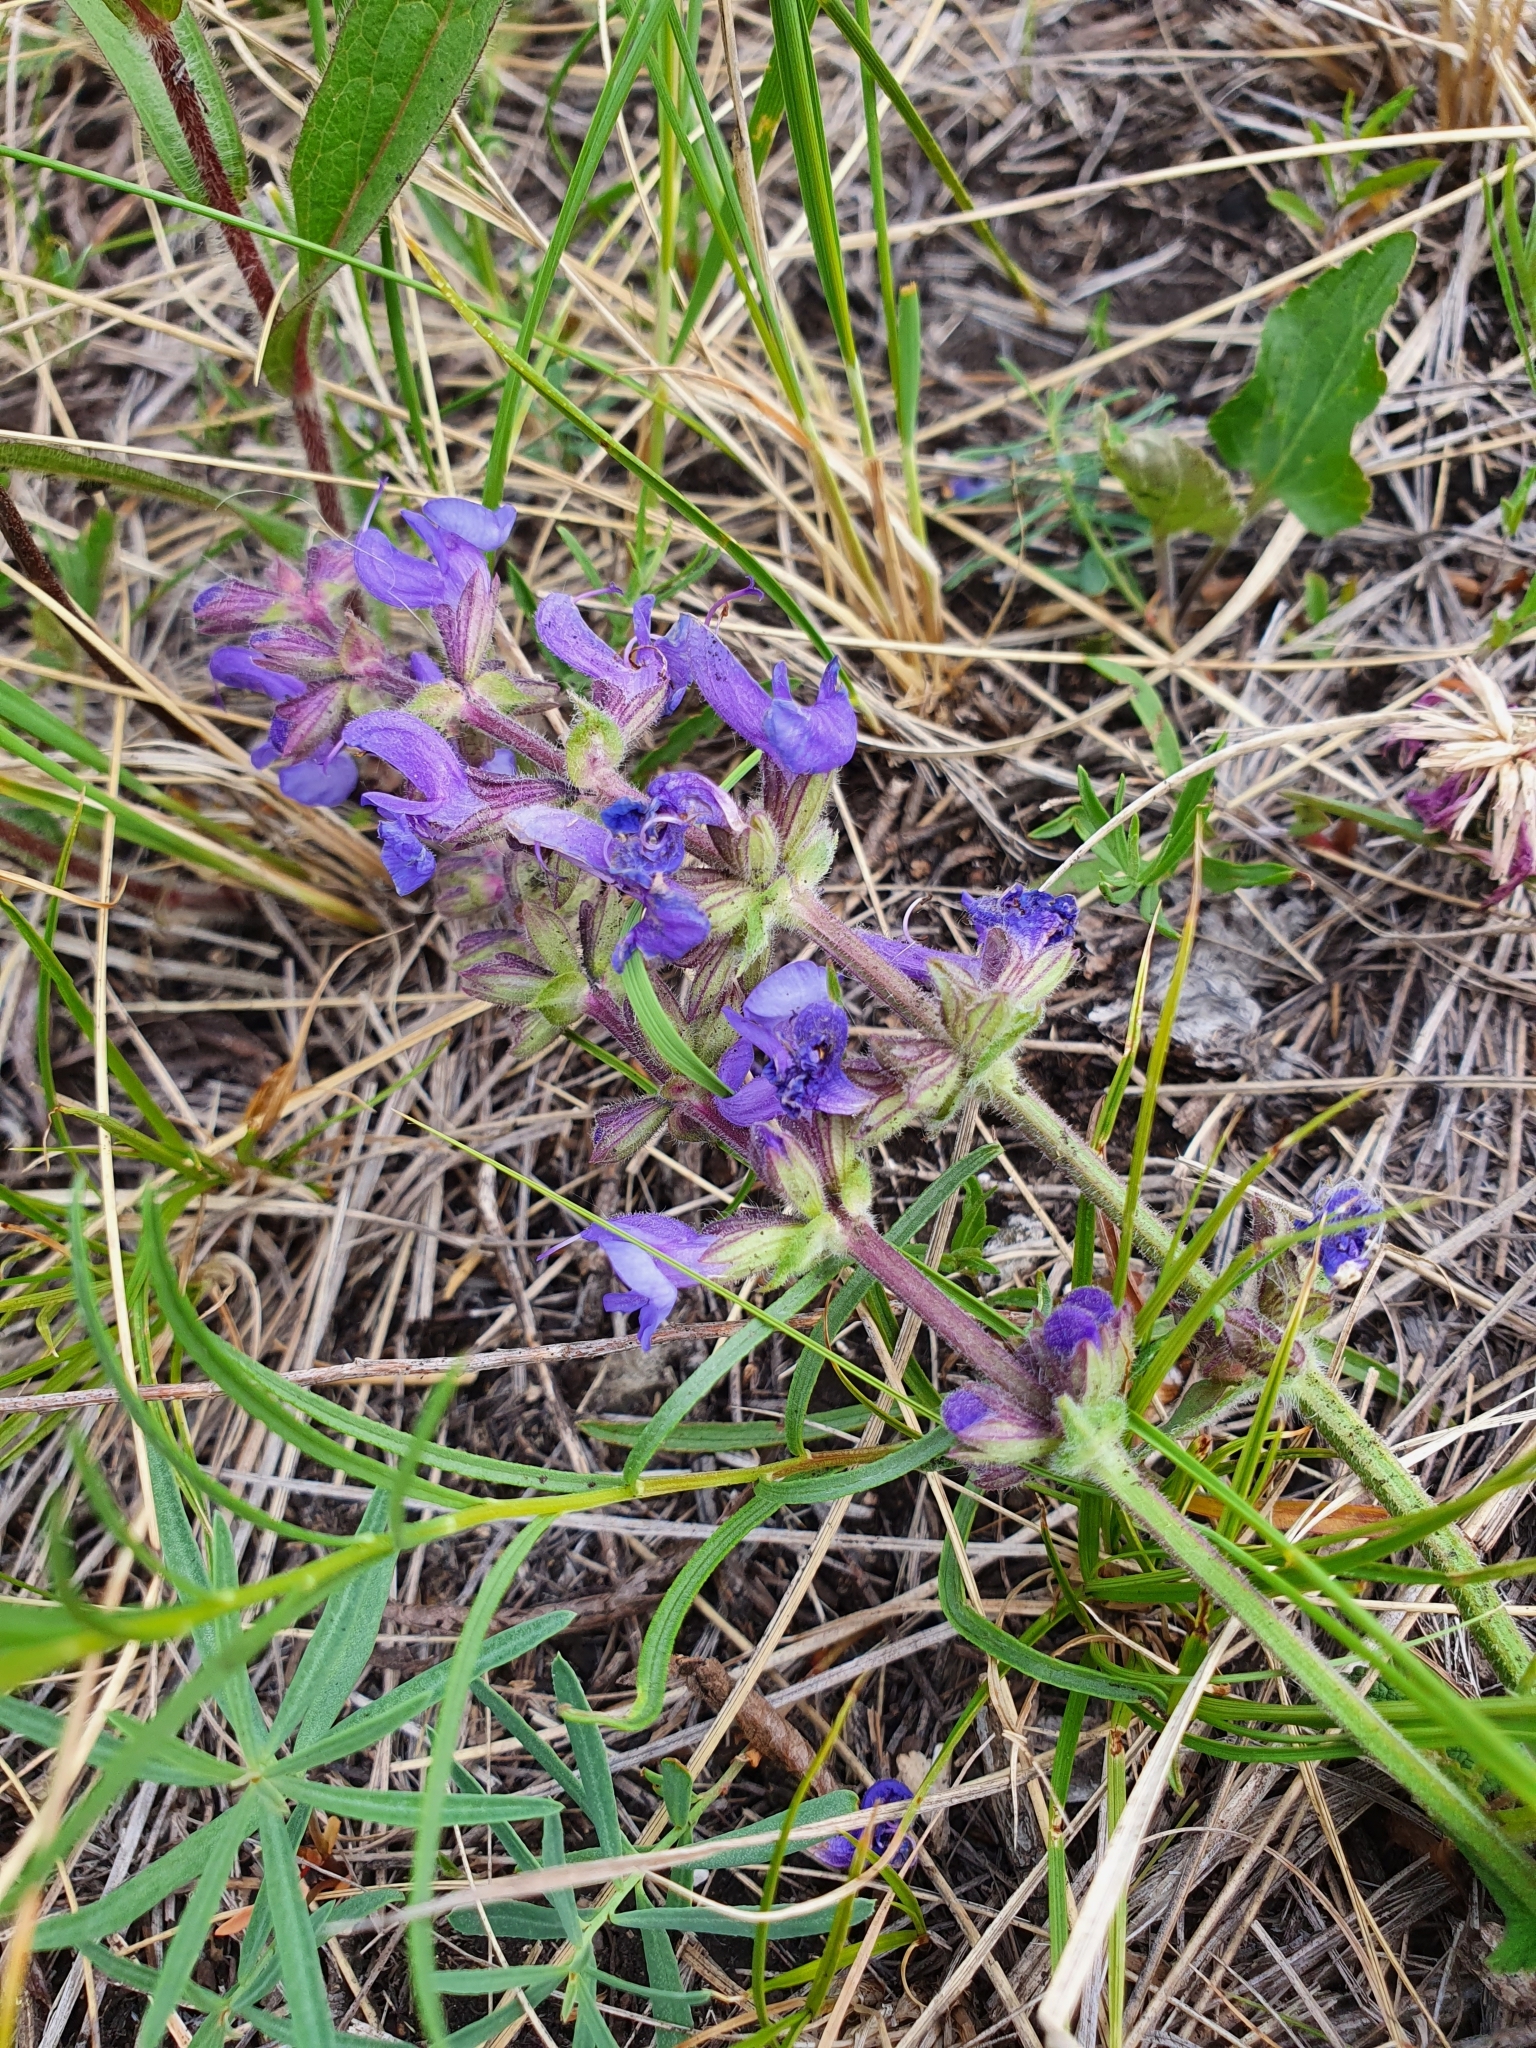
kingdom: Plantae
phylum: Tracheophyta
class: Magnoliopsida
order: Lamiales
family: Lamiaceae
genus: Salvia
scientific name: Salvia dumetorum
